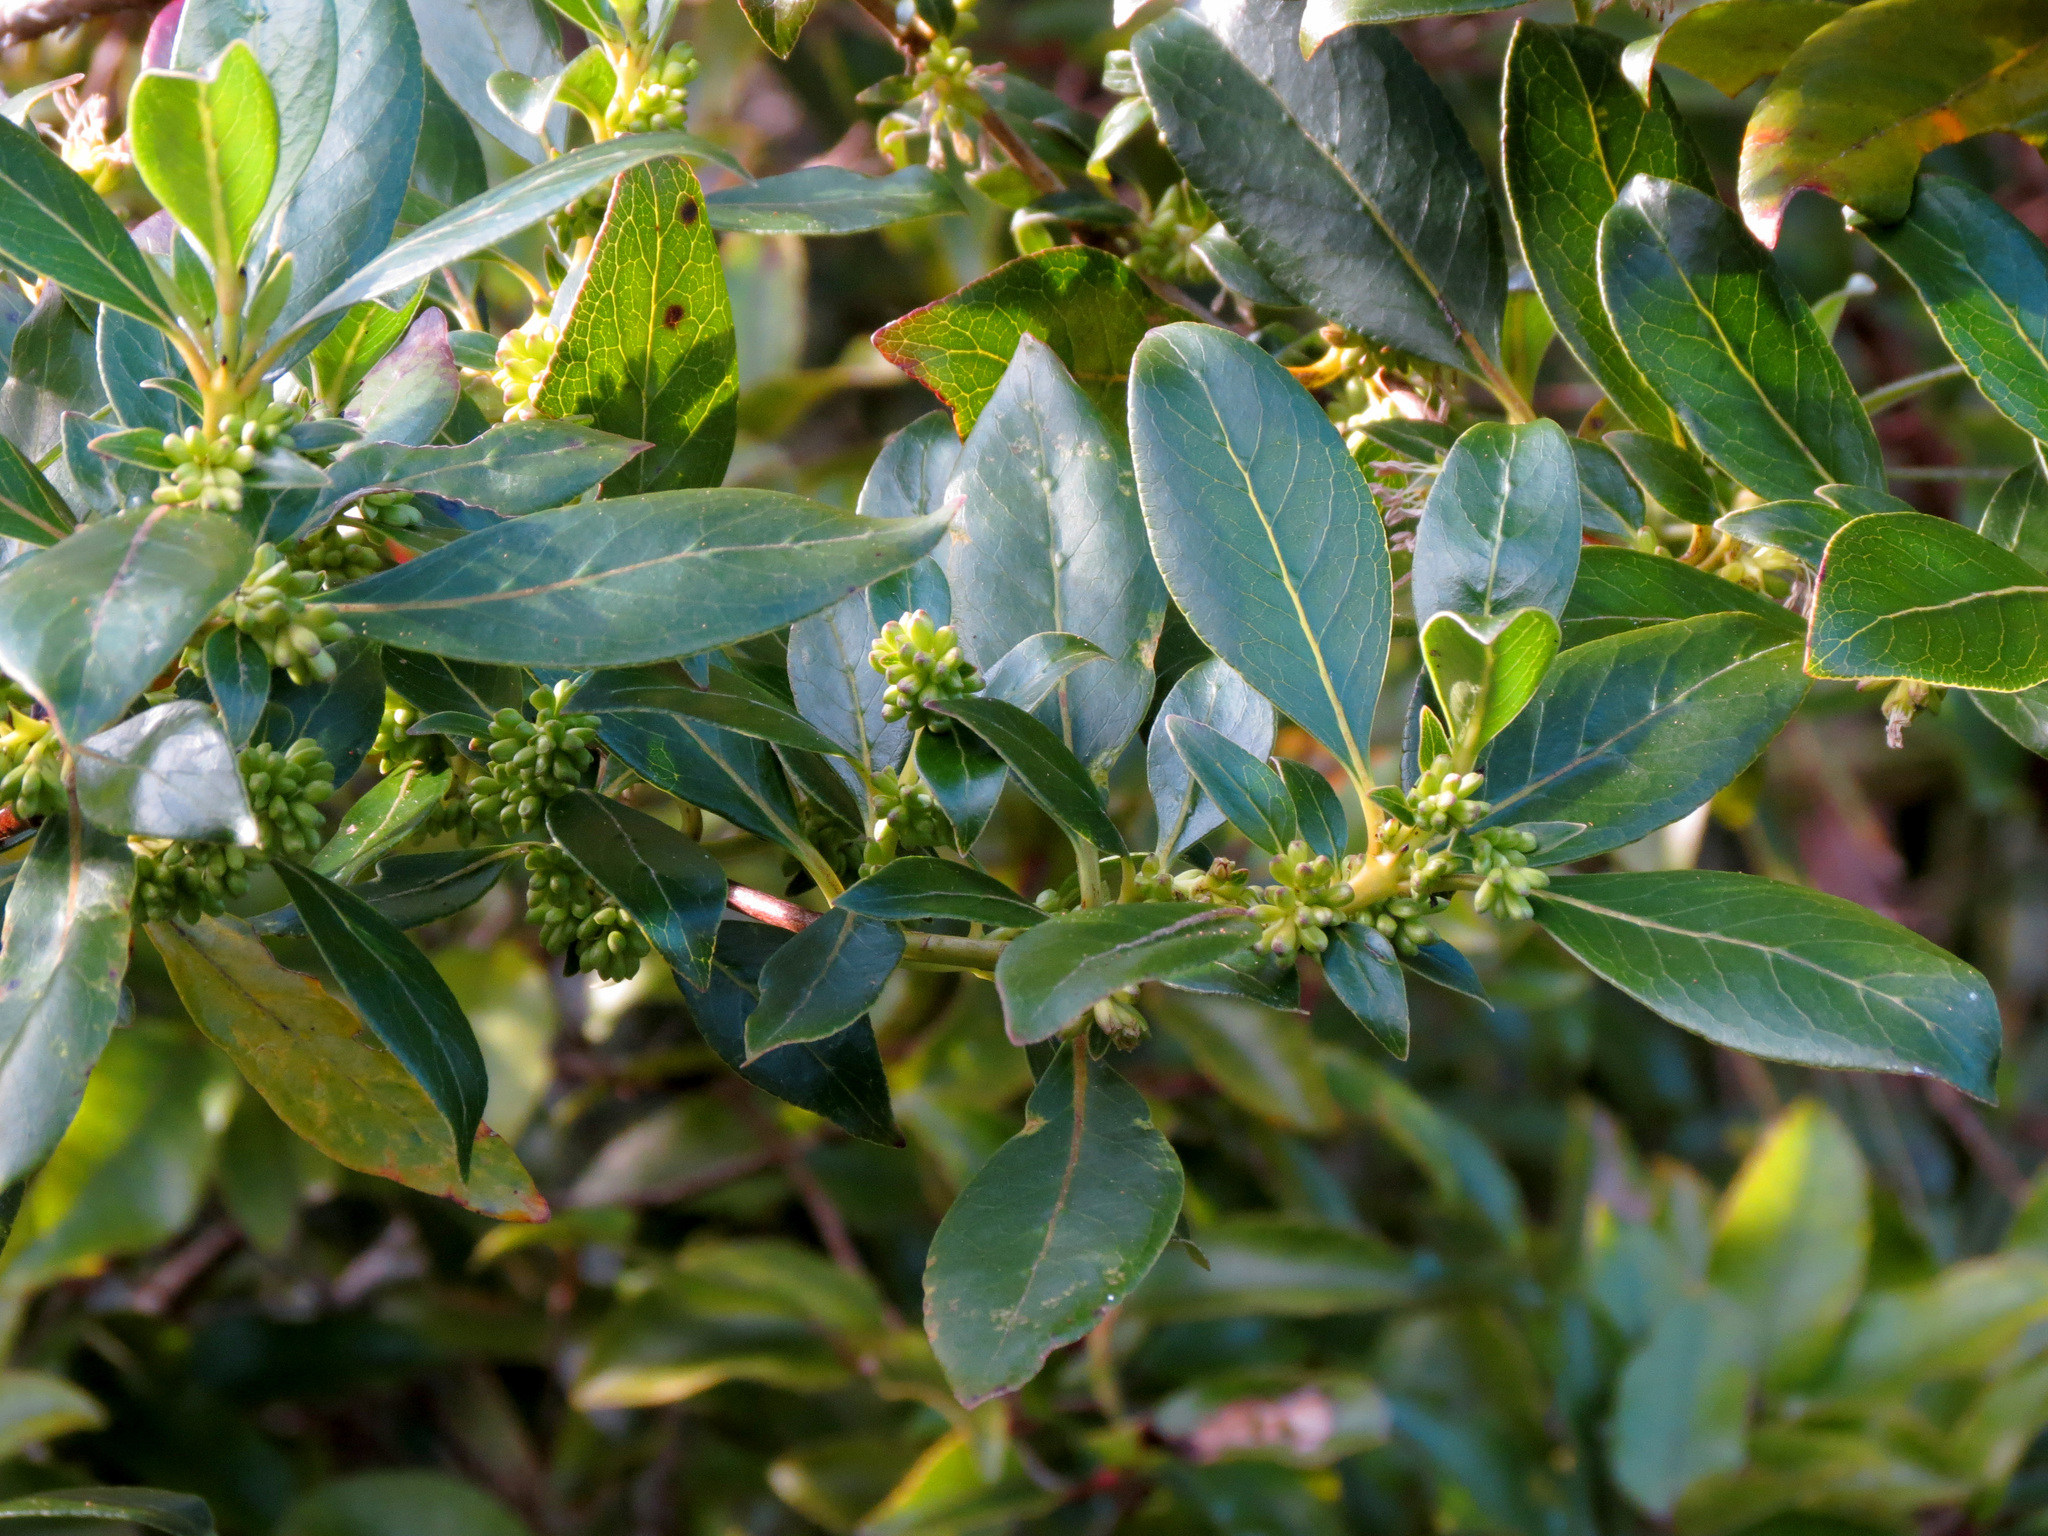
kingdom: Plantae
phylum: Tracheophyta
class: Magnoliopsida
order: Gentianales
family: Rubiaceae
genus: Coprosma
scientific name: Coprosma robusta
